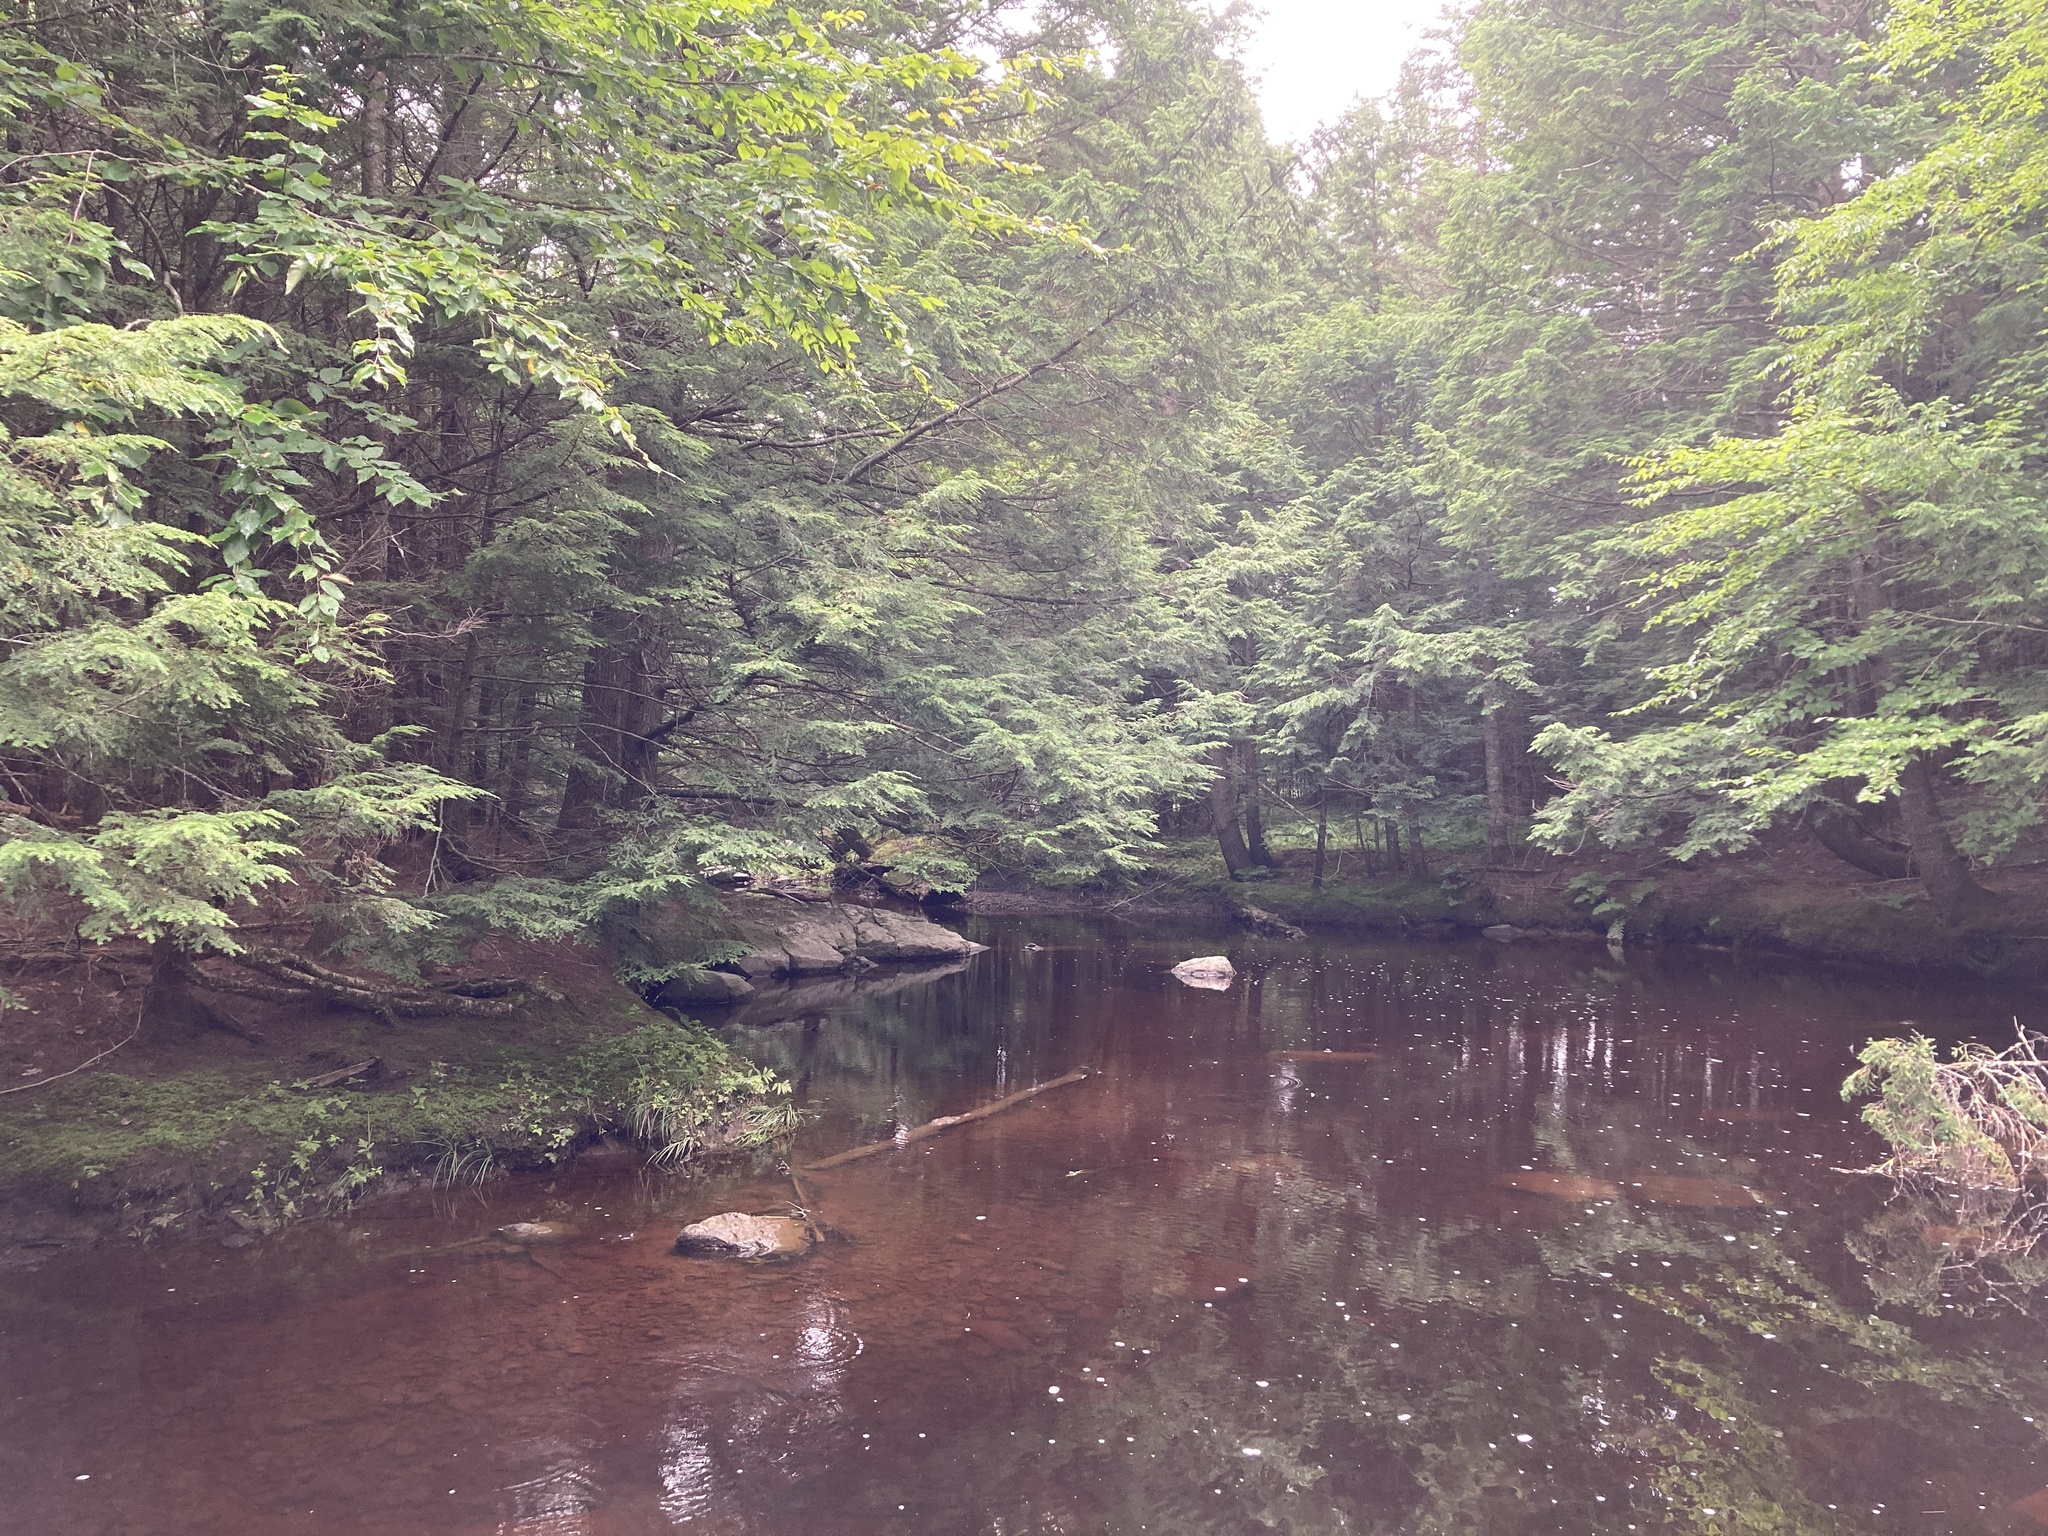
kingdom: Plantae
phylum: Tracheophyta
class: Pinopsida
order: Pinales
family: Pinaceae
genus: Tsuga
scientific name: Tsuga canadensis
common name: Eastern hemlock
